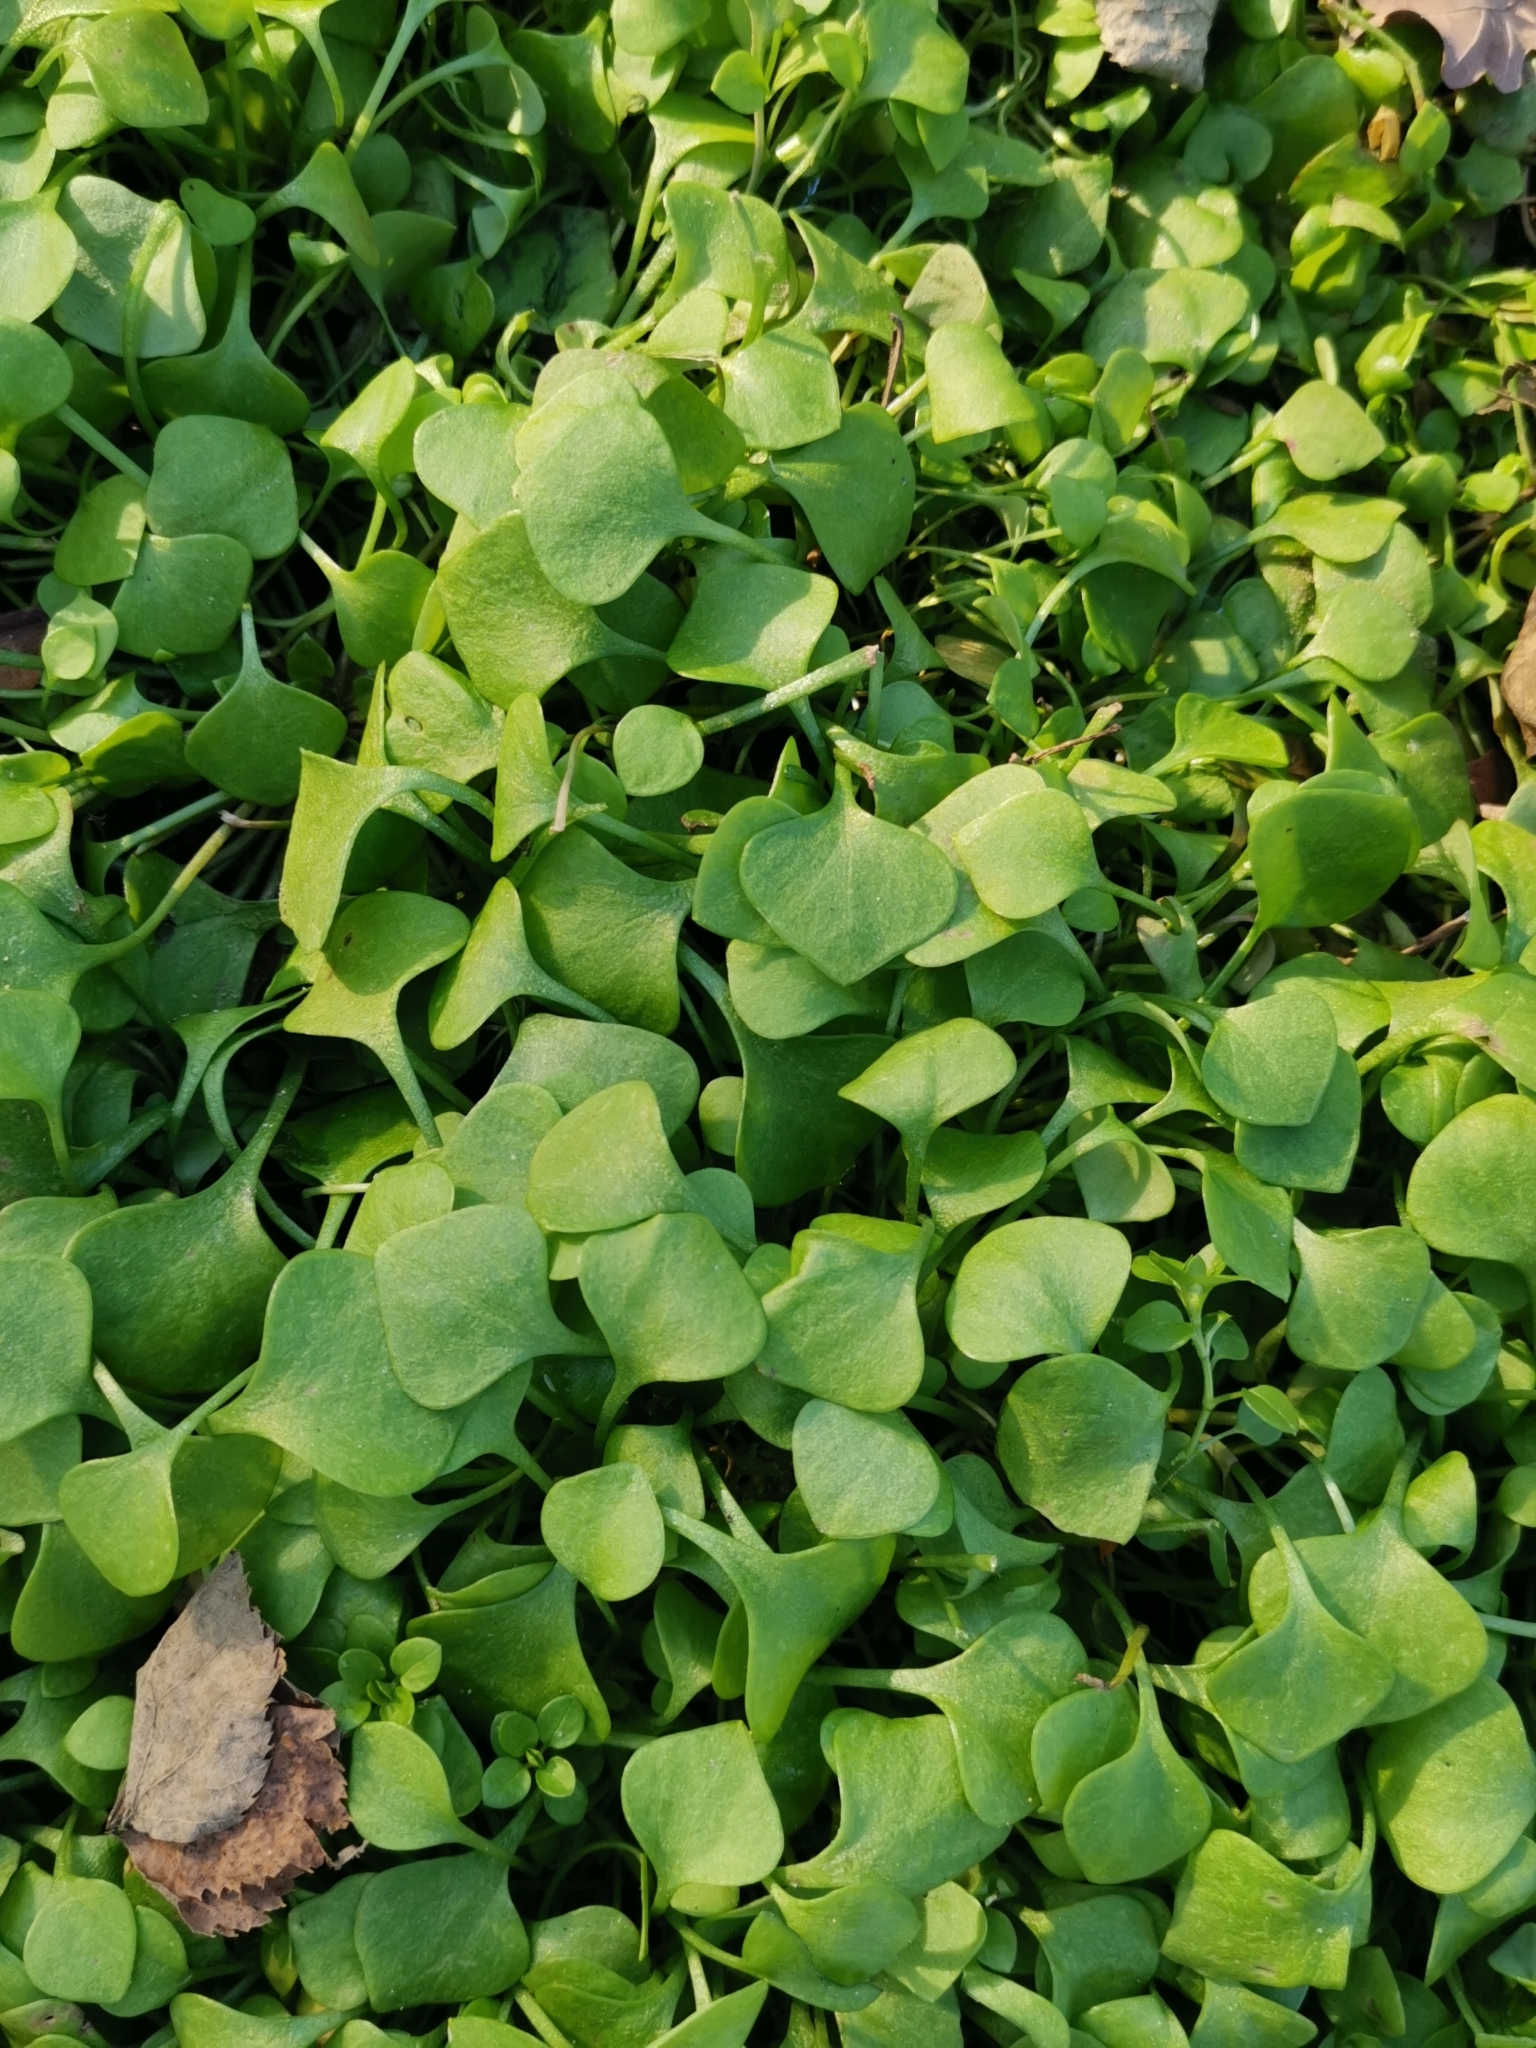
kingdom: Plantae
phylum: Tracheophyta
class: Magnoliopsida
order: Caryophyllales
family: Montiaceae
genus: Claytonia
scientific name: Claytonia perfoliata
